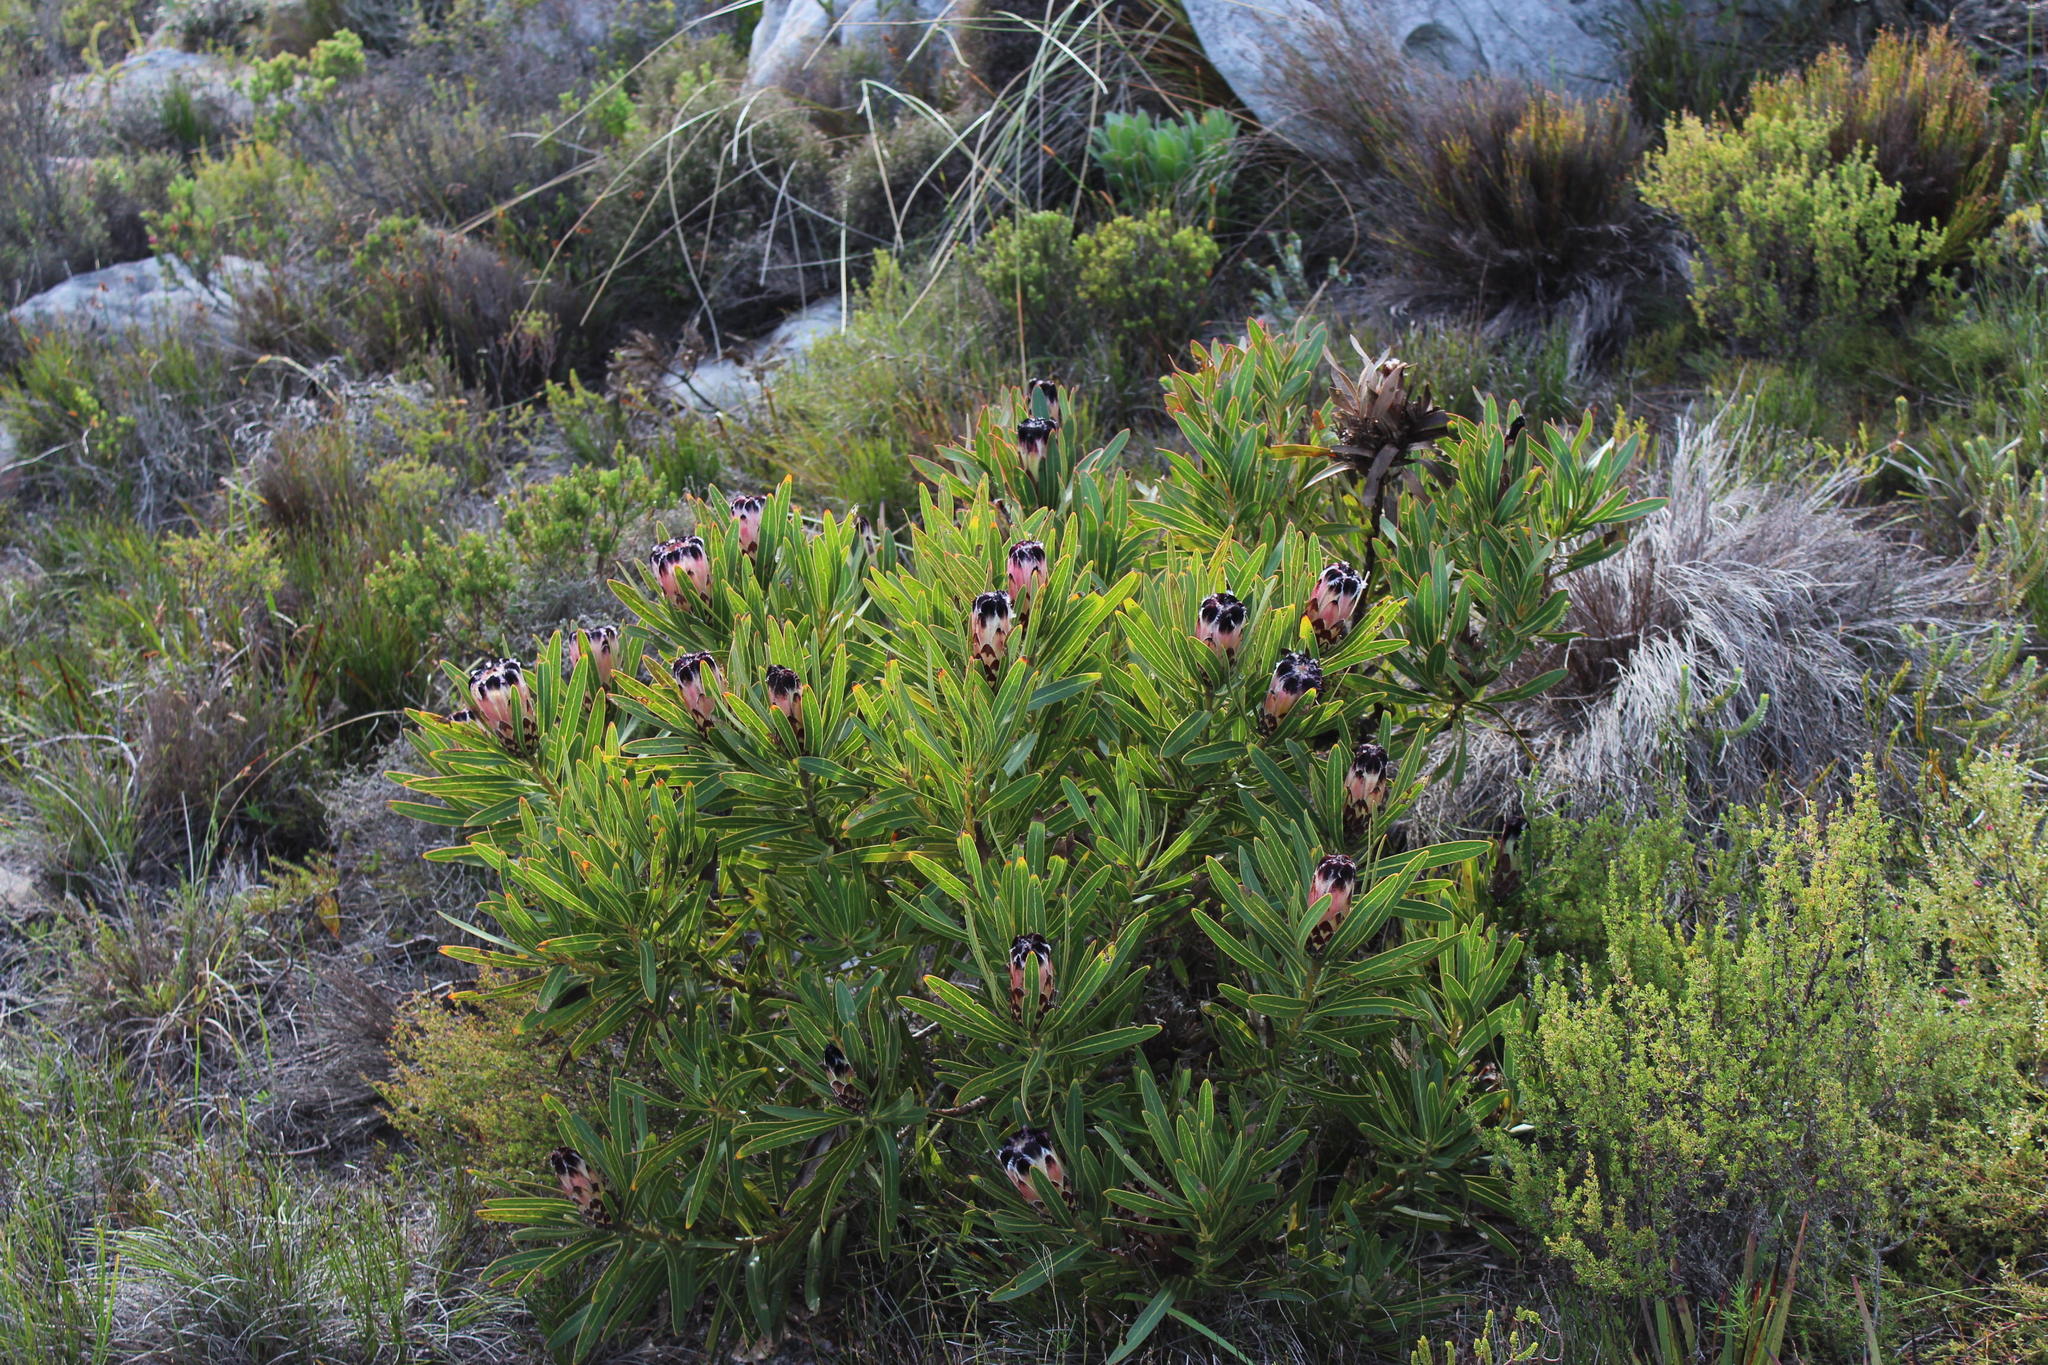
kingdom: Plantae
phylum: Tracheophyta
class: Magnoliopsida
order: Proteales
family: Proteaceae
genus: Protea
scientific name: Protea
